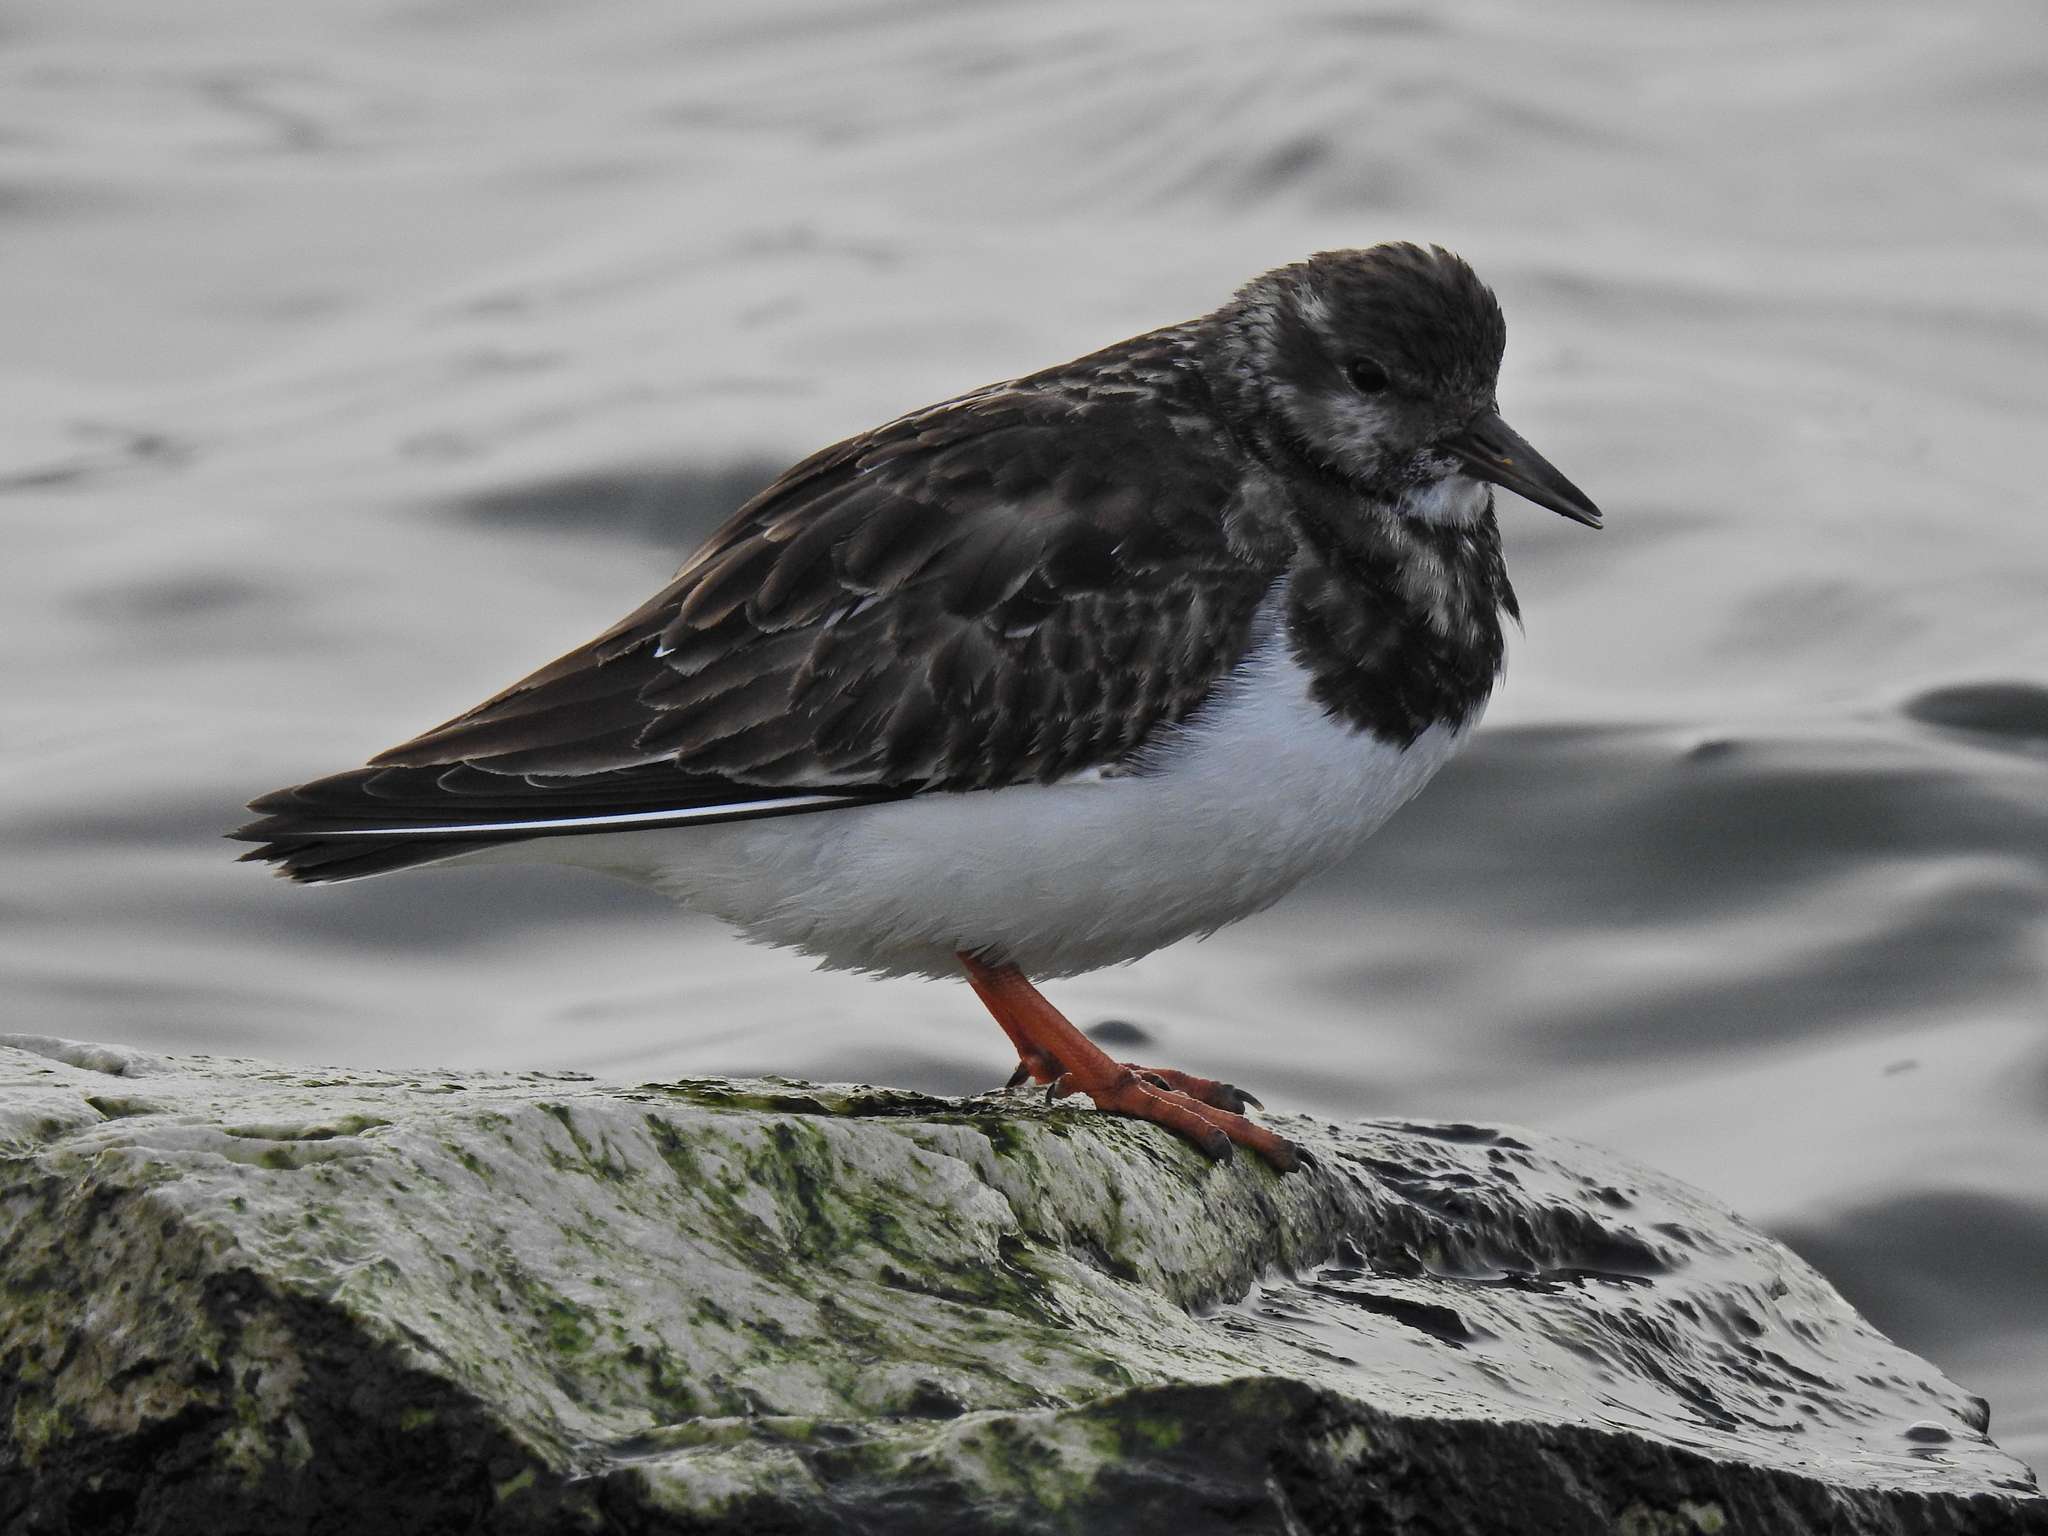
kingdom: Animalia
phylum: Chordata
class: Aves
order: Charadriiformes
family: Scolopacidae
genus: Arenaria
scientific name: Arenaria interpres
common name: Ruddy turnstone
